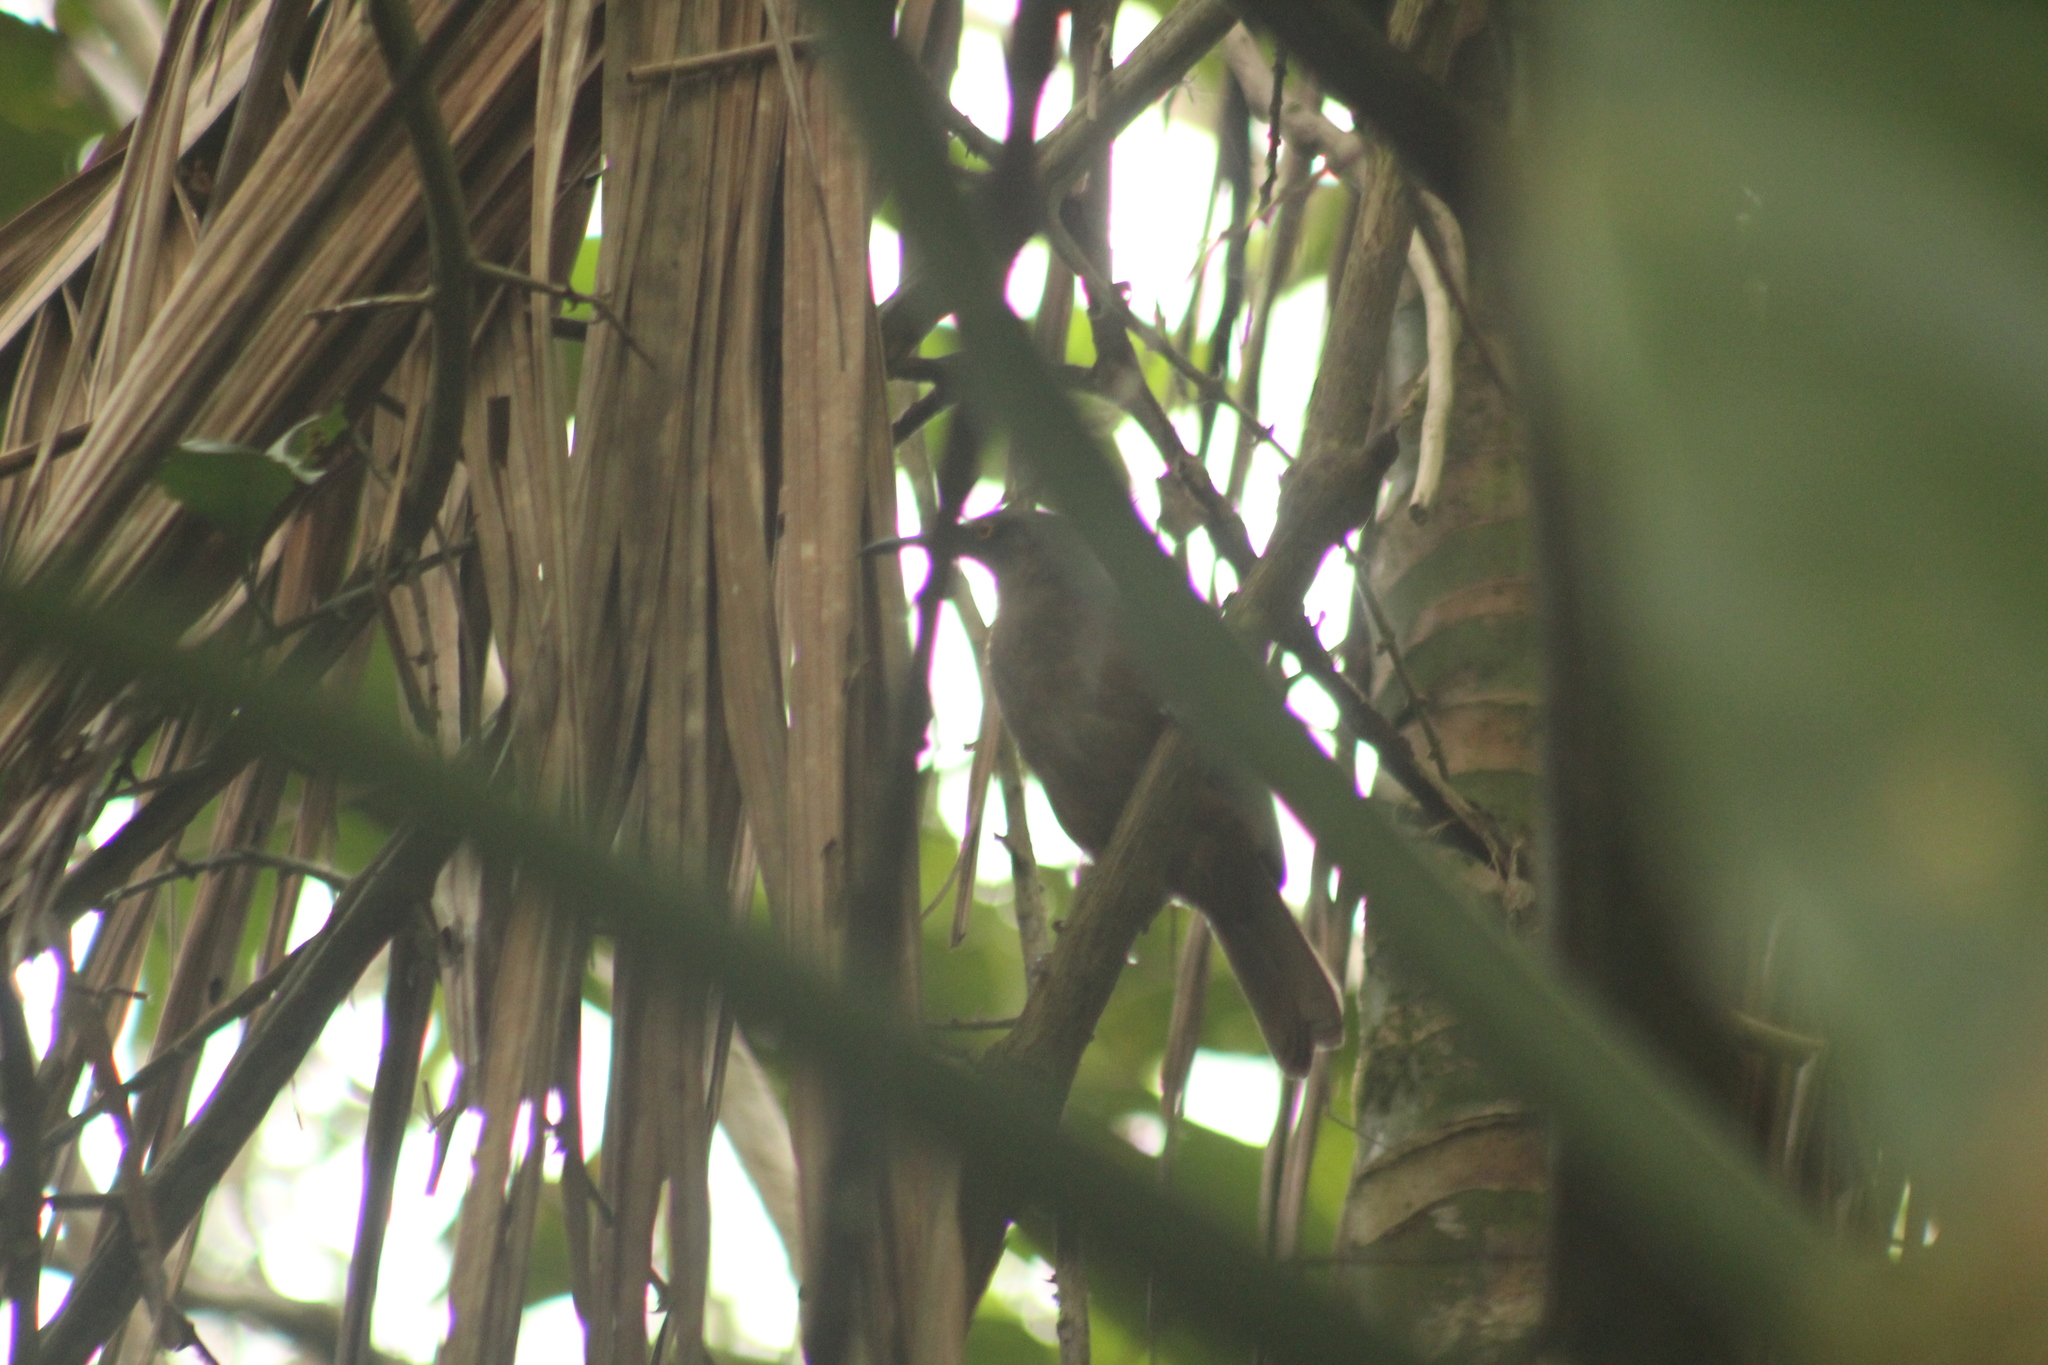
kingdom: Animalia
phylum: Chordata
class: Aves
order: Passeriformes
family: Mimidae
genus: Cinclocerthia
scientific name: Cinclocerthia ruficauda
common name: Brown trembler
